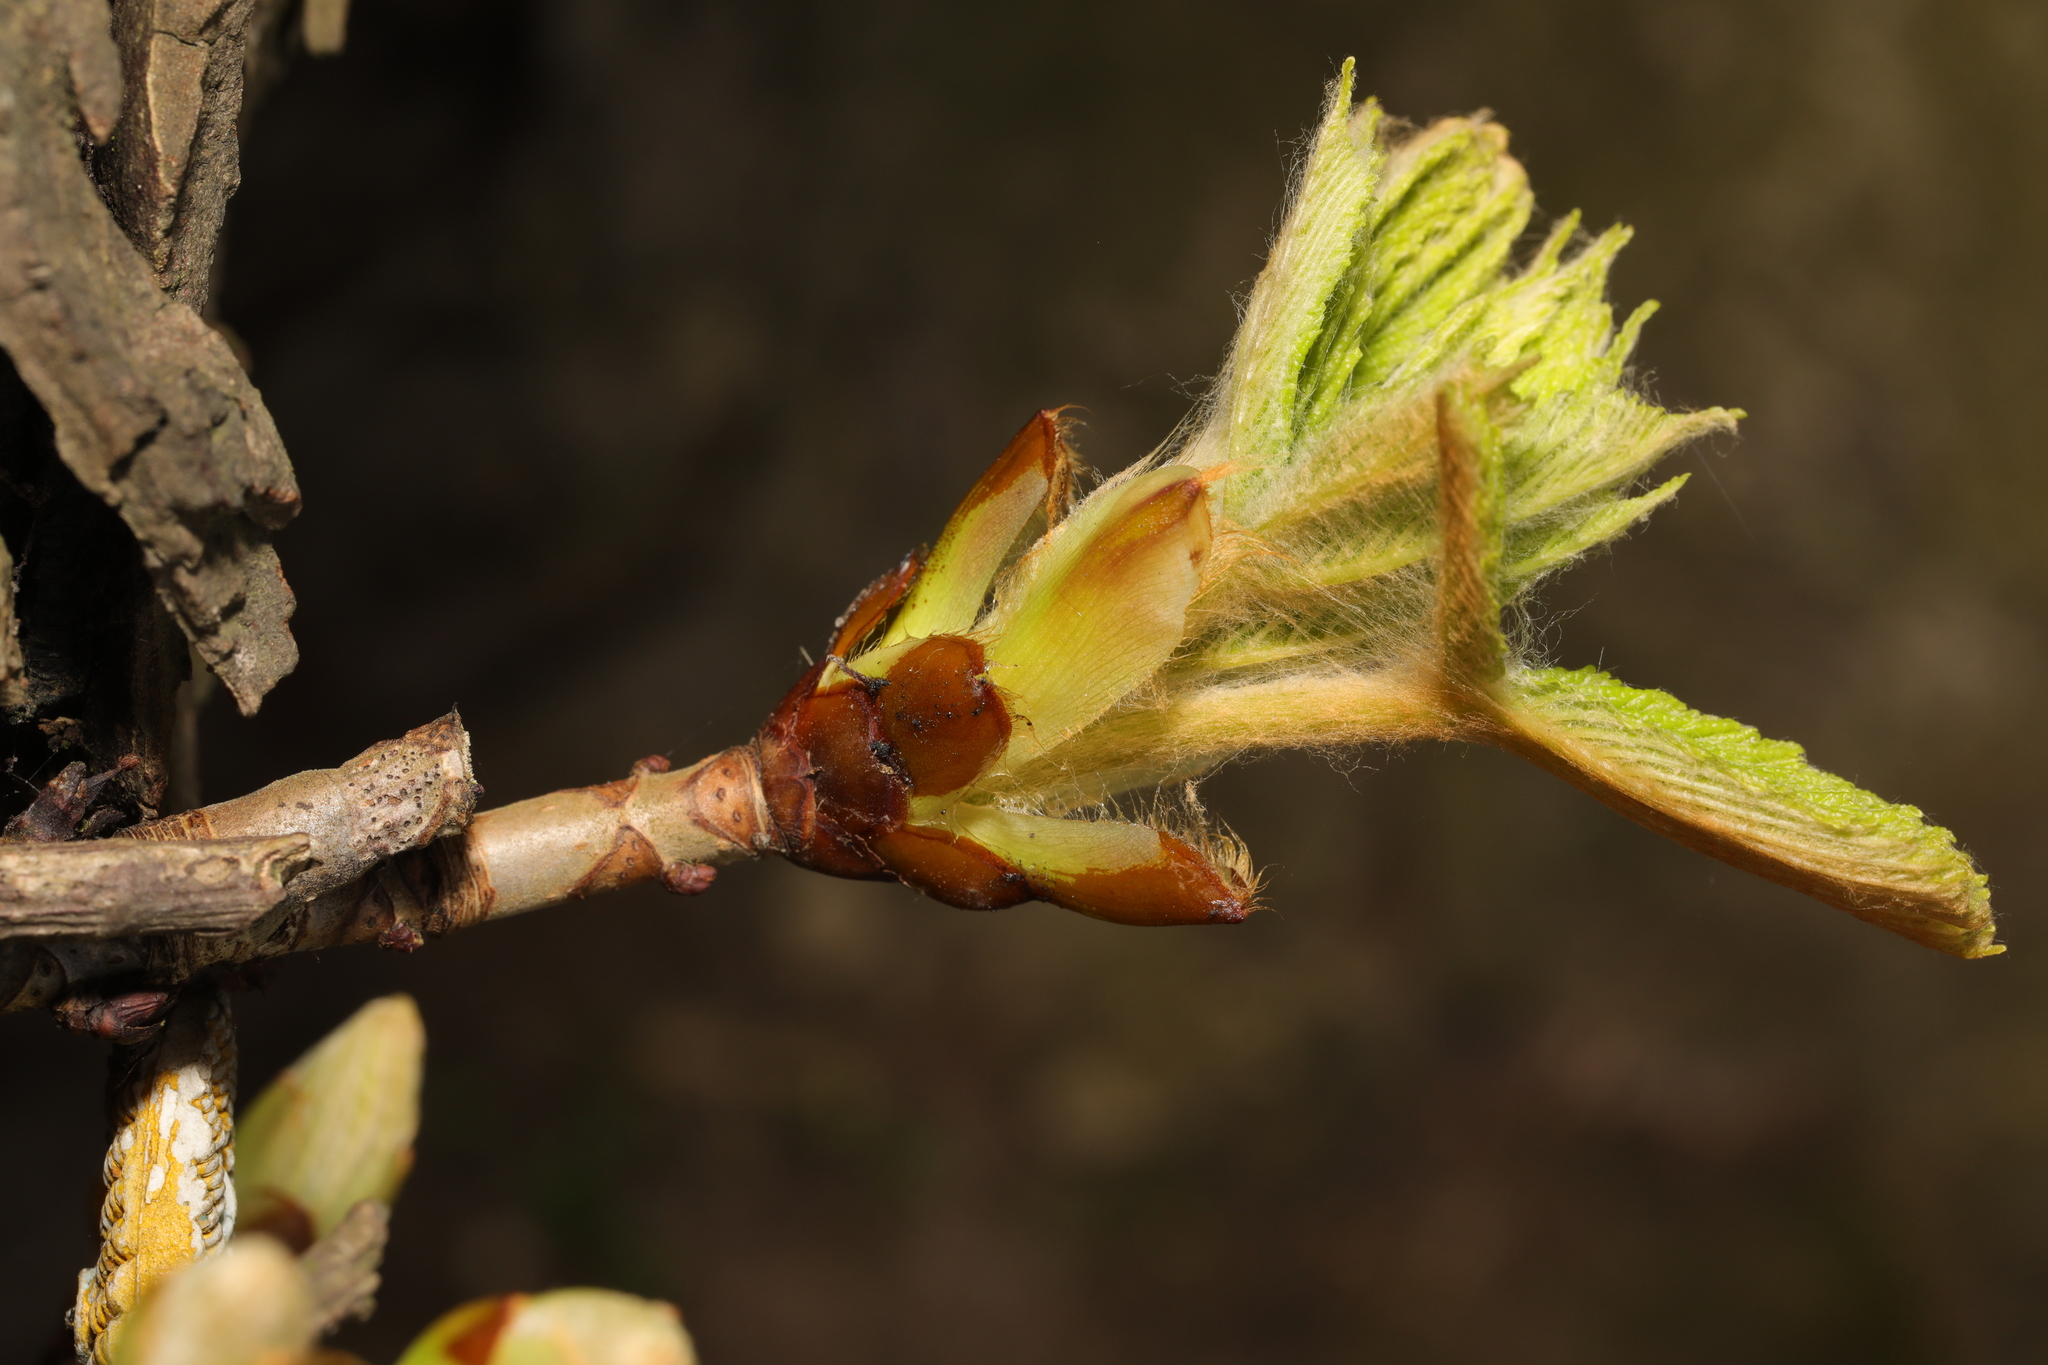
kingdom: Plantae
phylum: Tracheophyta
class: Magnoliopsida
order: Sapindales
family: Sapindaceae
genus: Aesculus
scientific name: Aesculus hippocastanum
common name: Horse-chestnut
